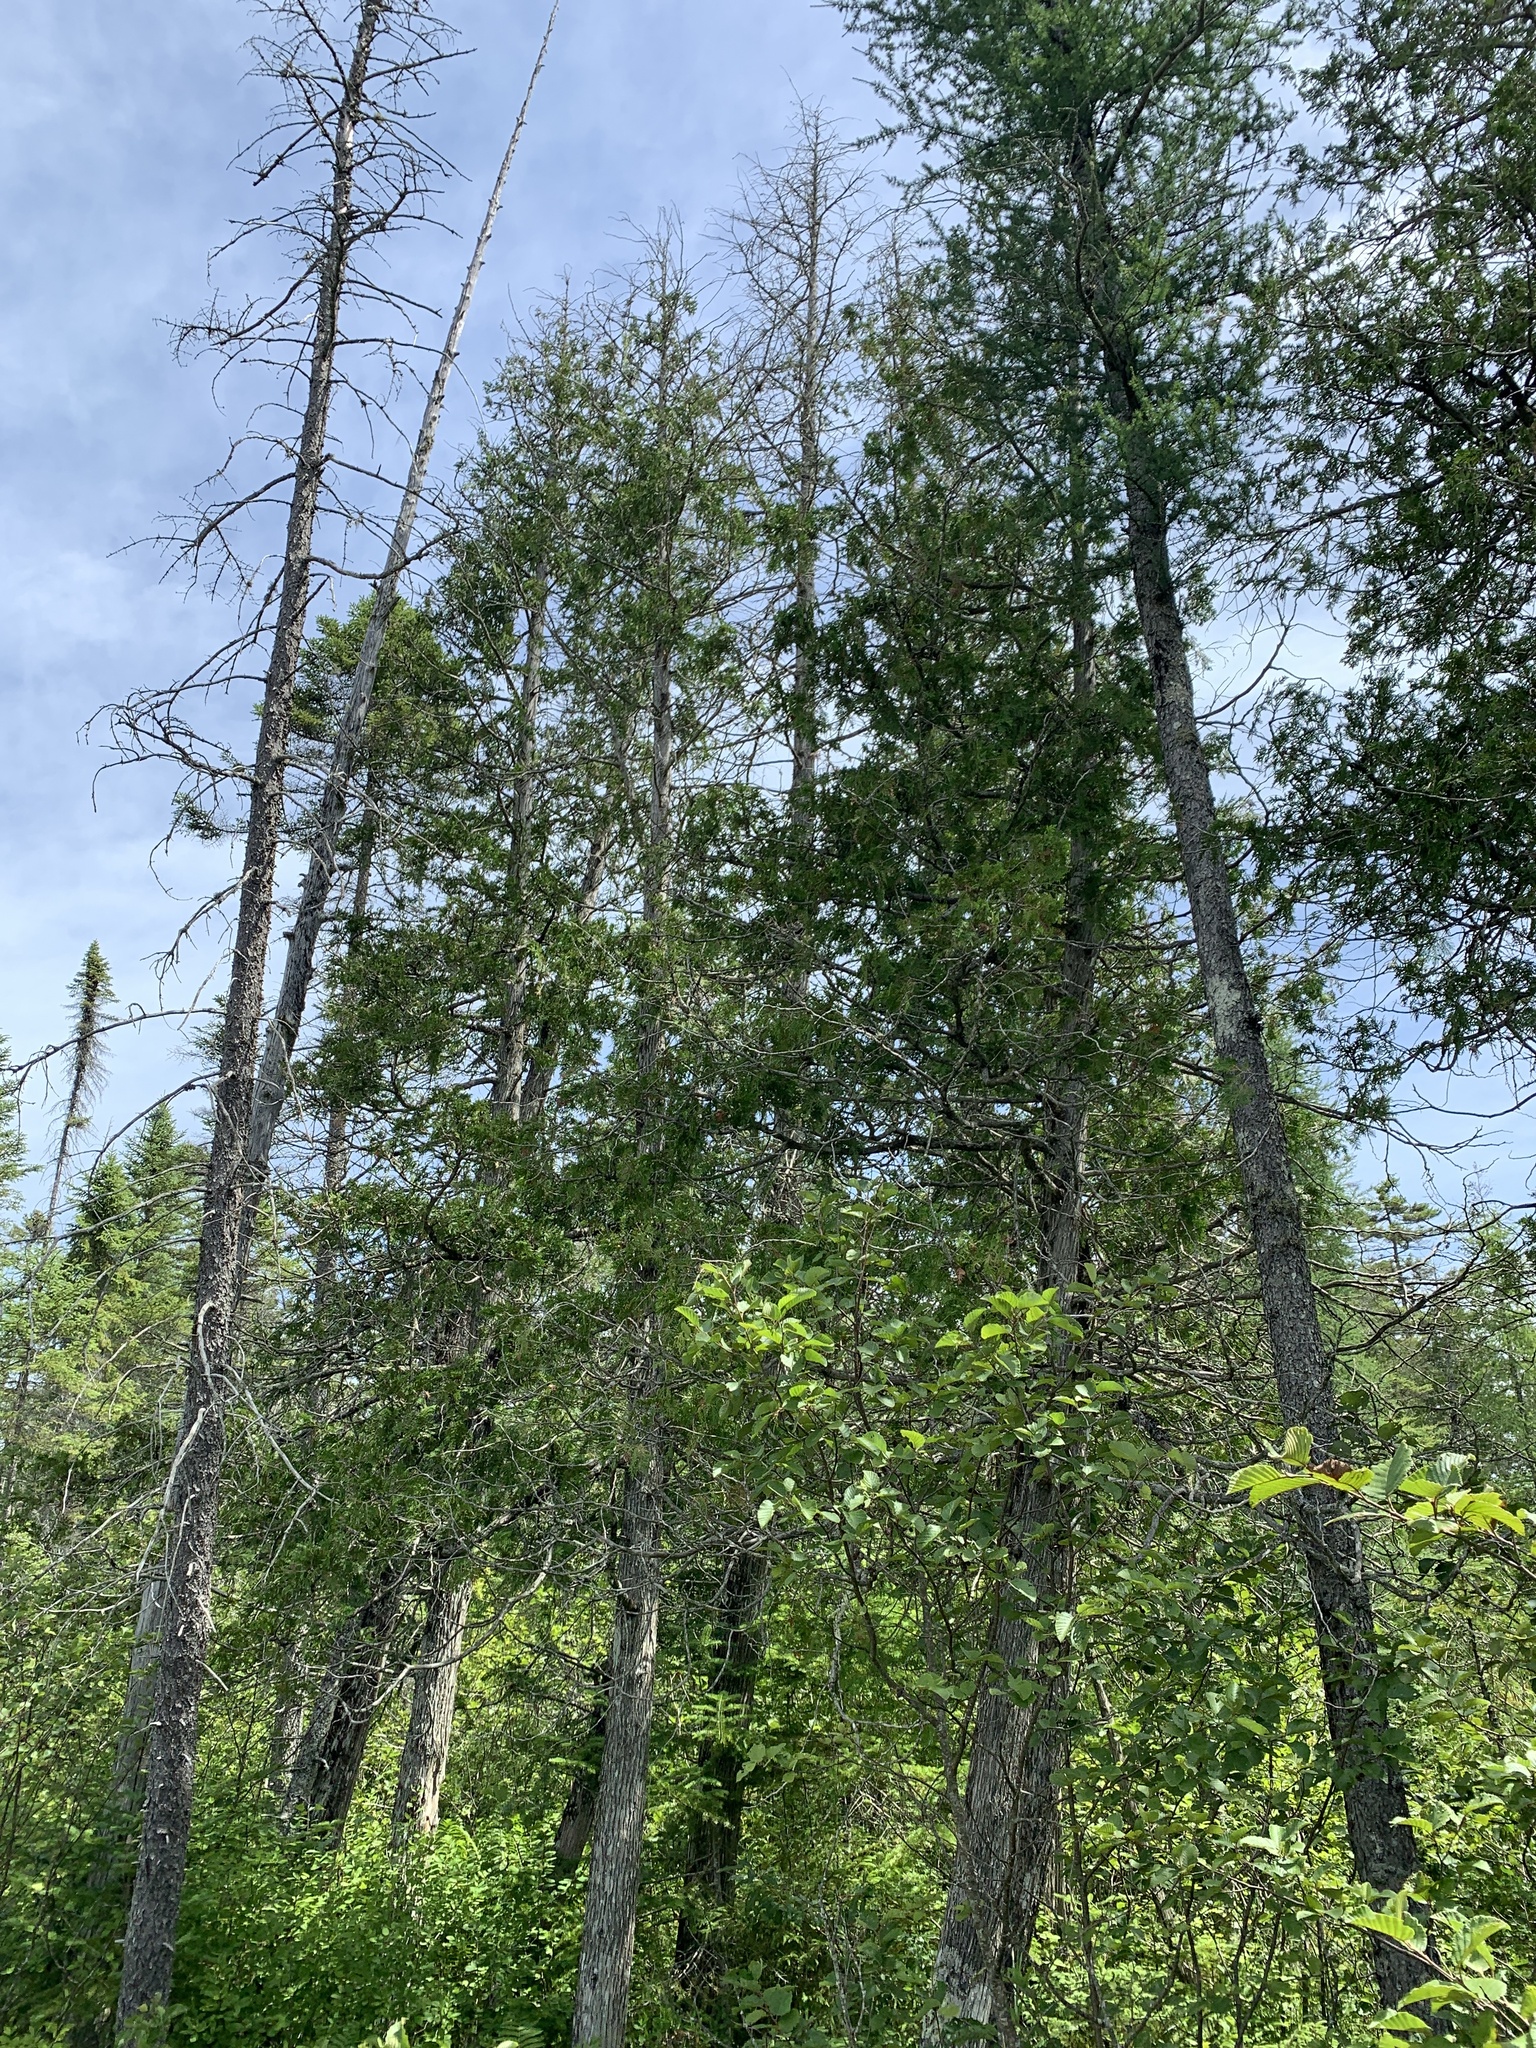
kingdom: Plantae
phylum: Tracheophyta
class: Pinopsida
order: Pinales
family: Cupressaceae
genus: Thuja
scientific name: Thuja occidentalis
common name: Northern white-cedar
